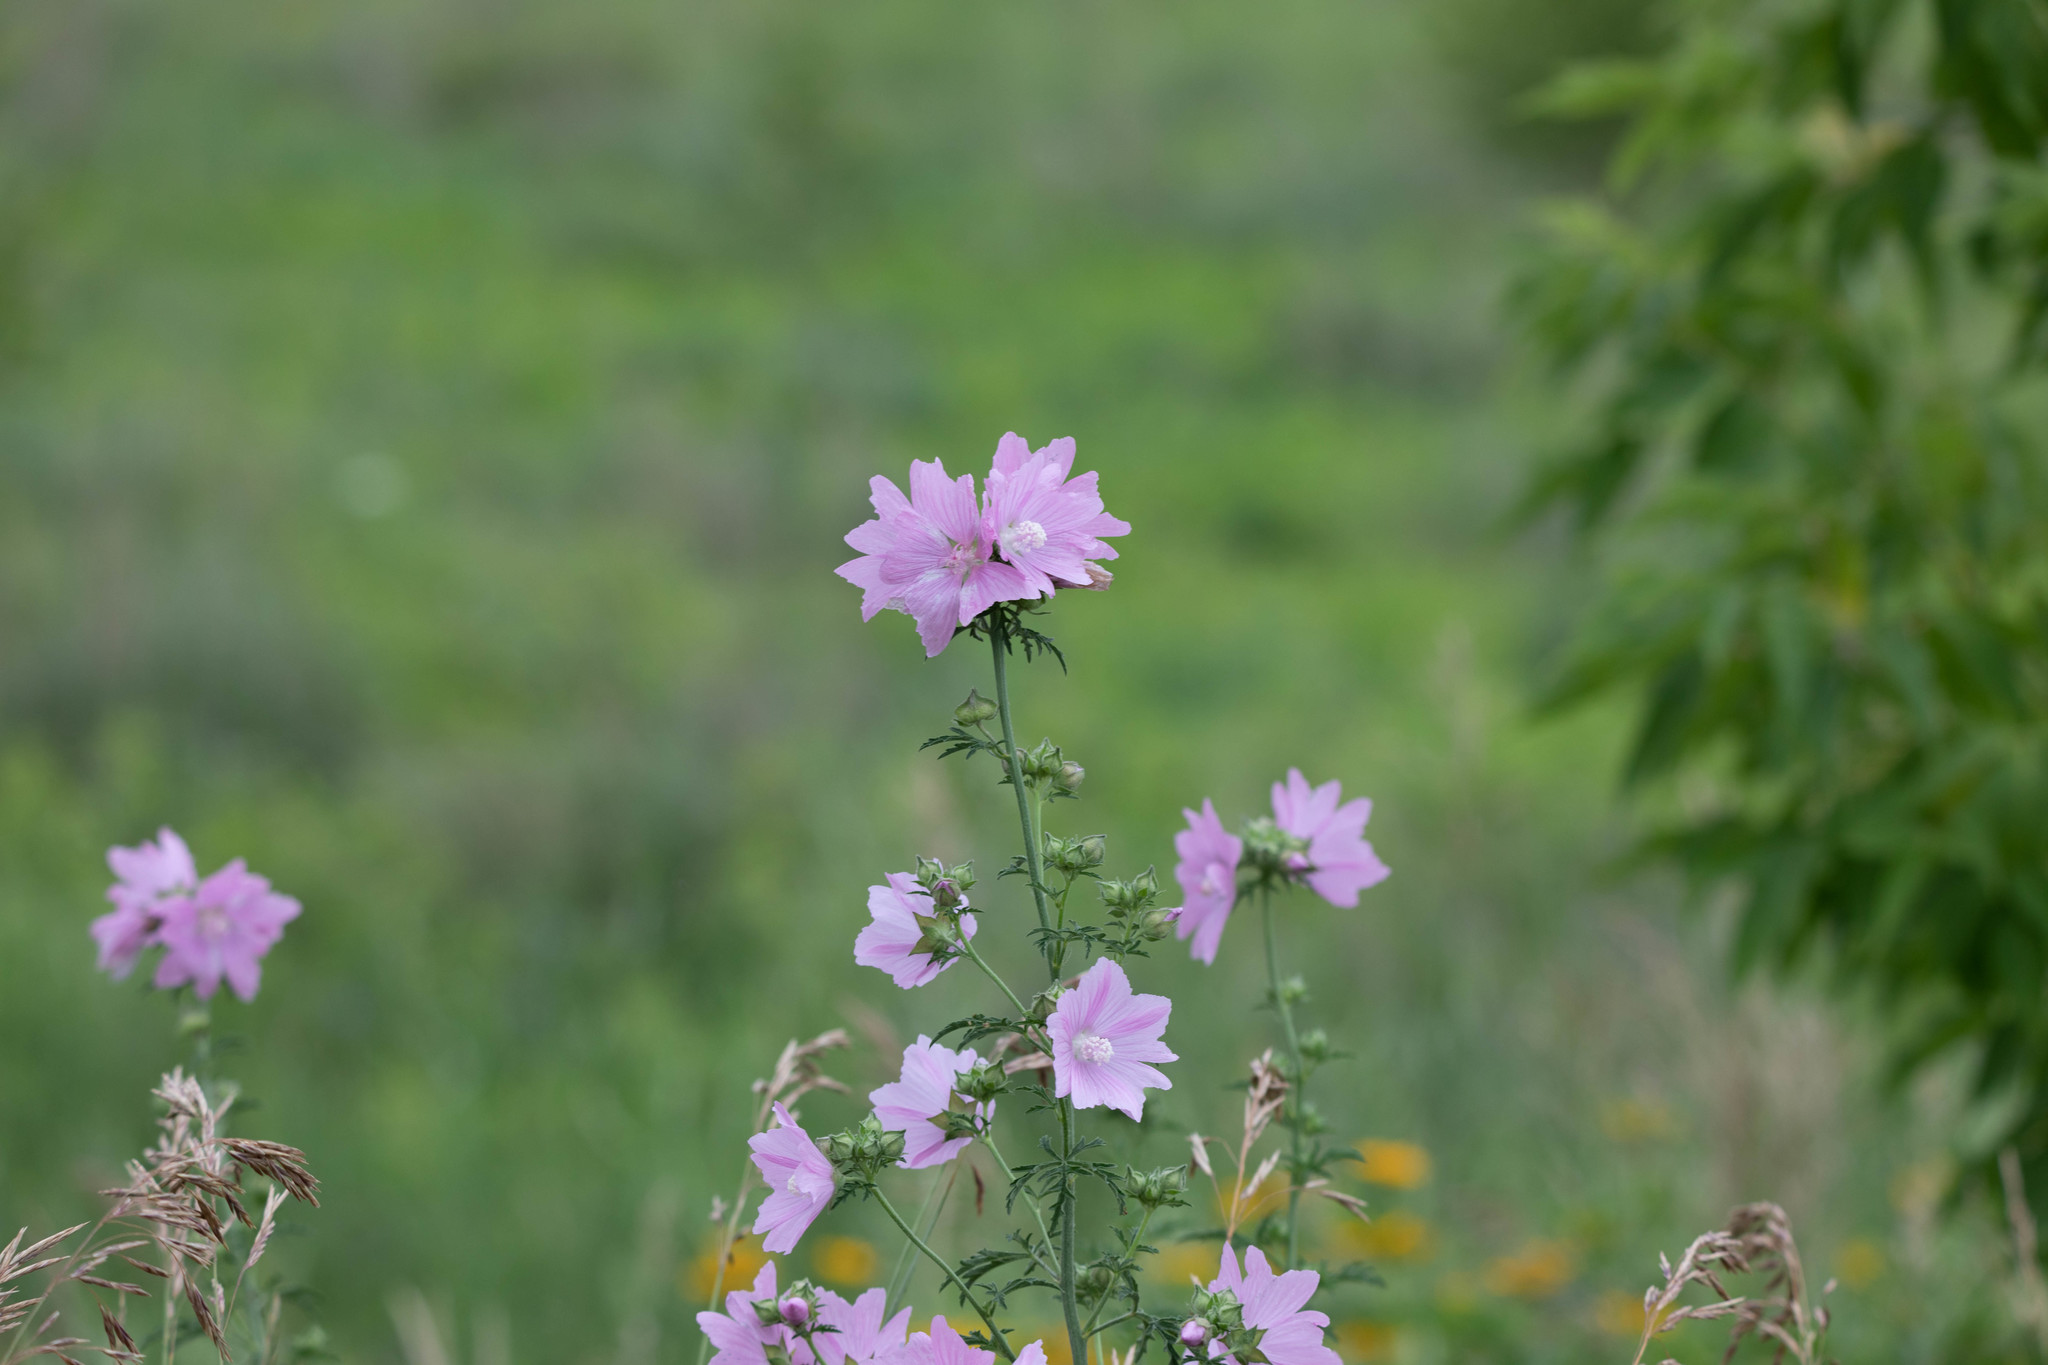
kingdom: Plantae
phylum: Tracheophyta
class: Magnoliopsida
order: Malvales
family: Malvaceae
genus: Malva
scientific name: Malva moschata
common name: Musk mallow
